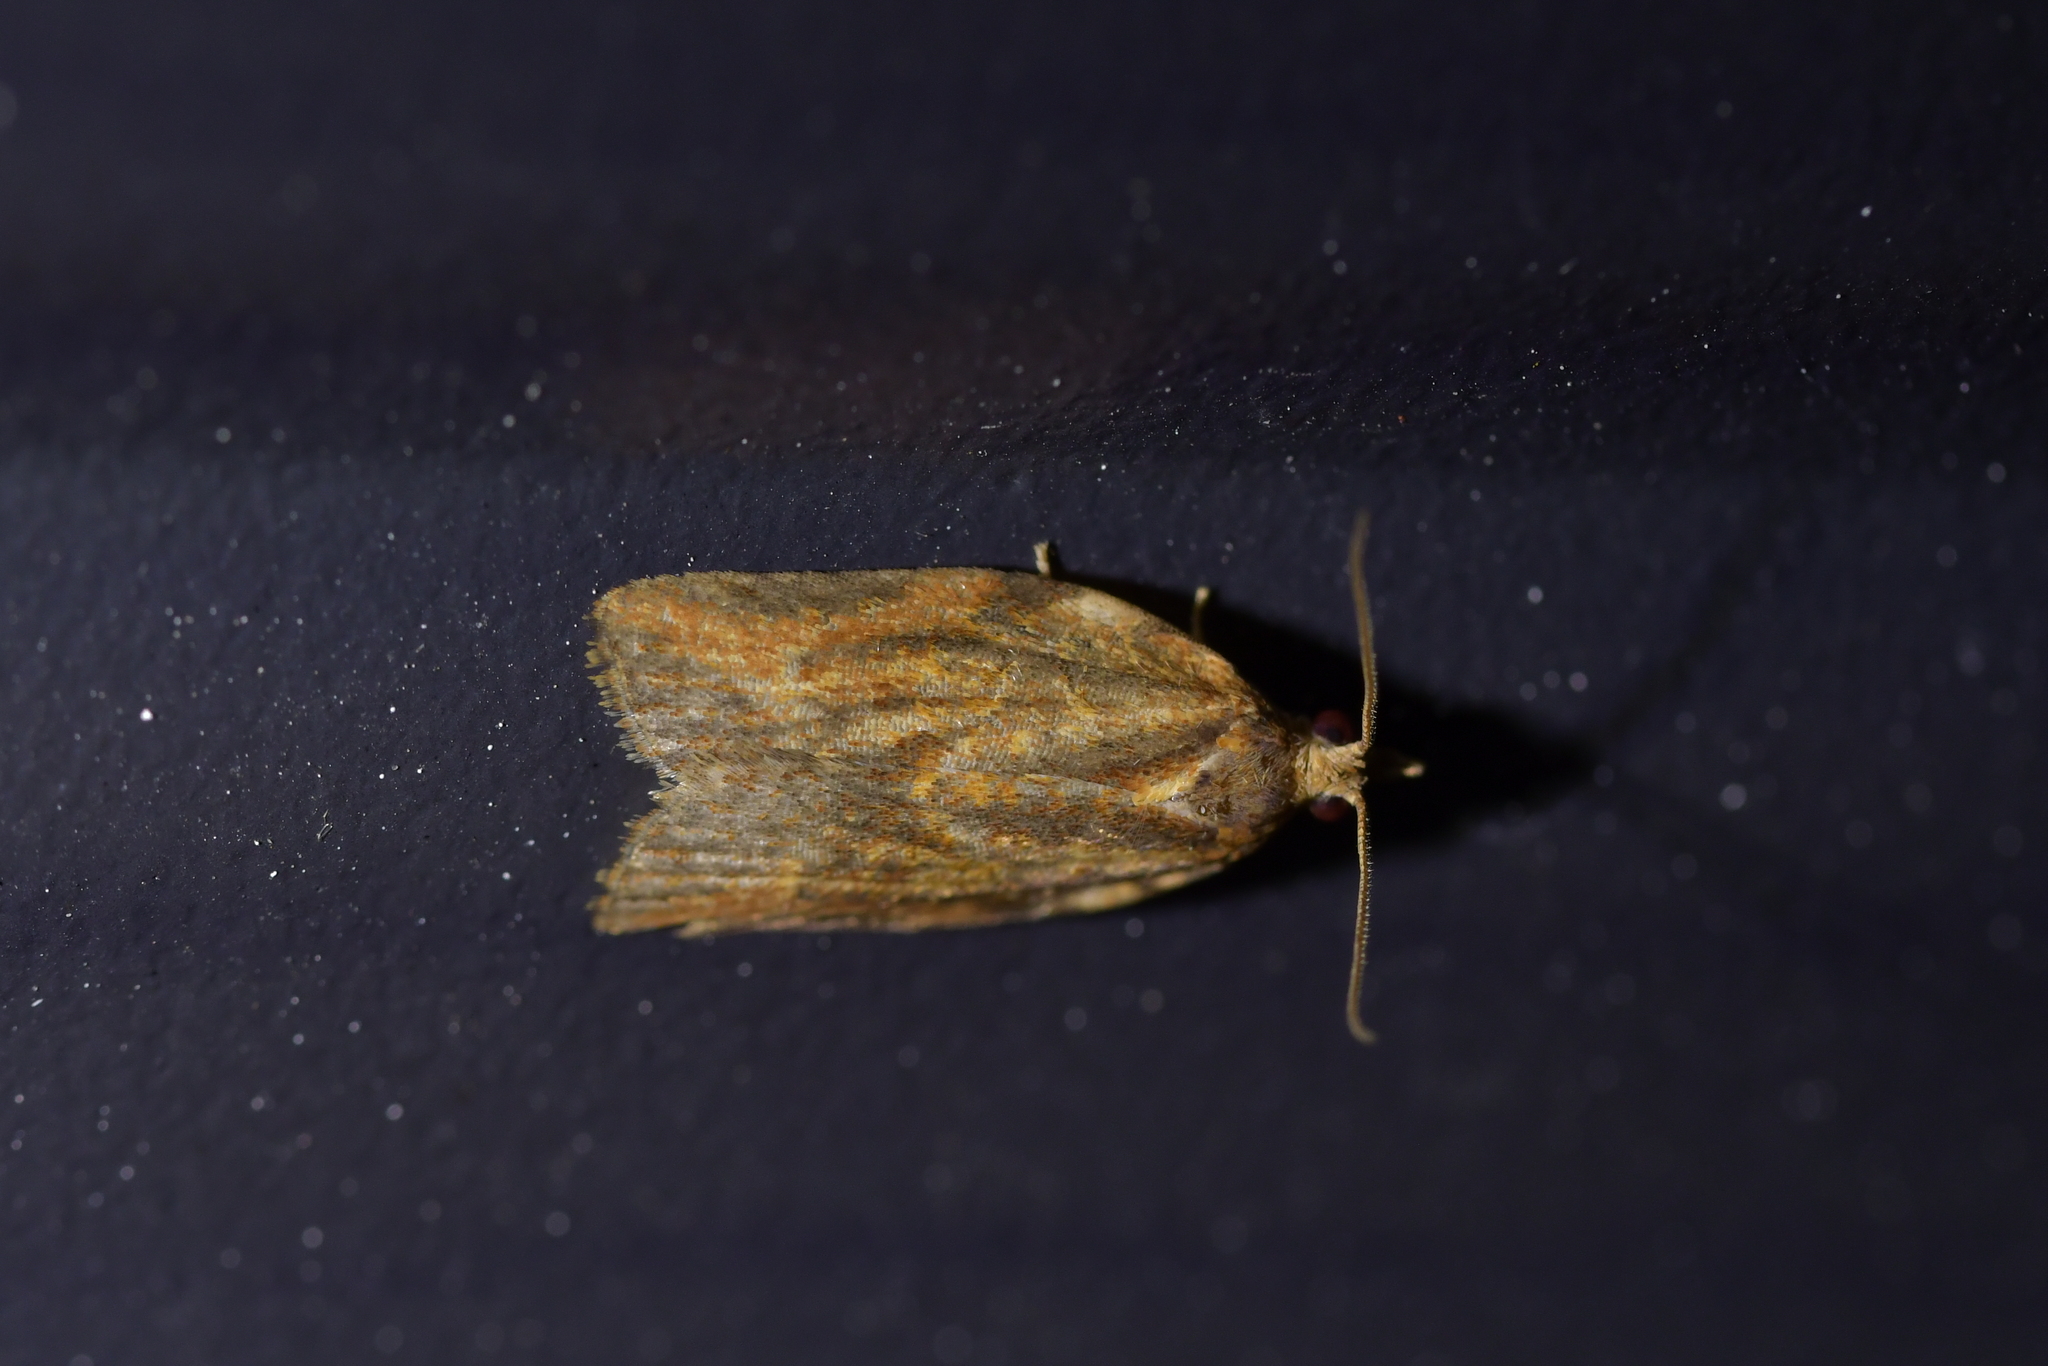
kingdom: Animalia
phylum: Arthropoda
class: Insecta
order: Lepidoptera
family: Tortricidae
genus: Epiphyas
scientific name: Epiphyas postvittana
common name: Light brown apple moth
